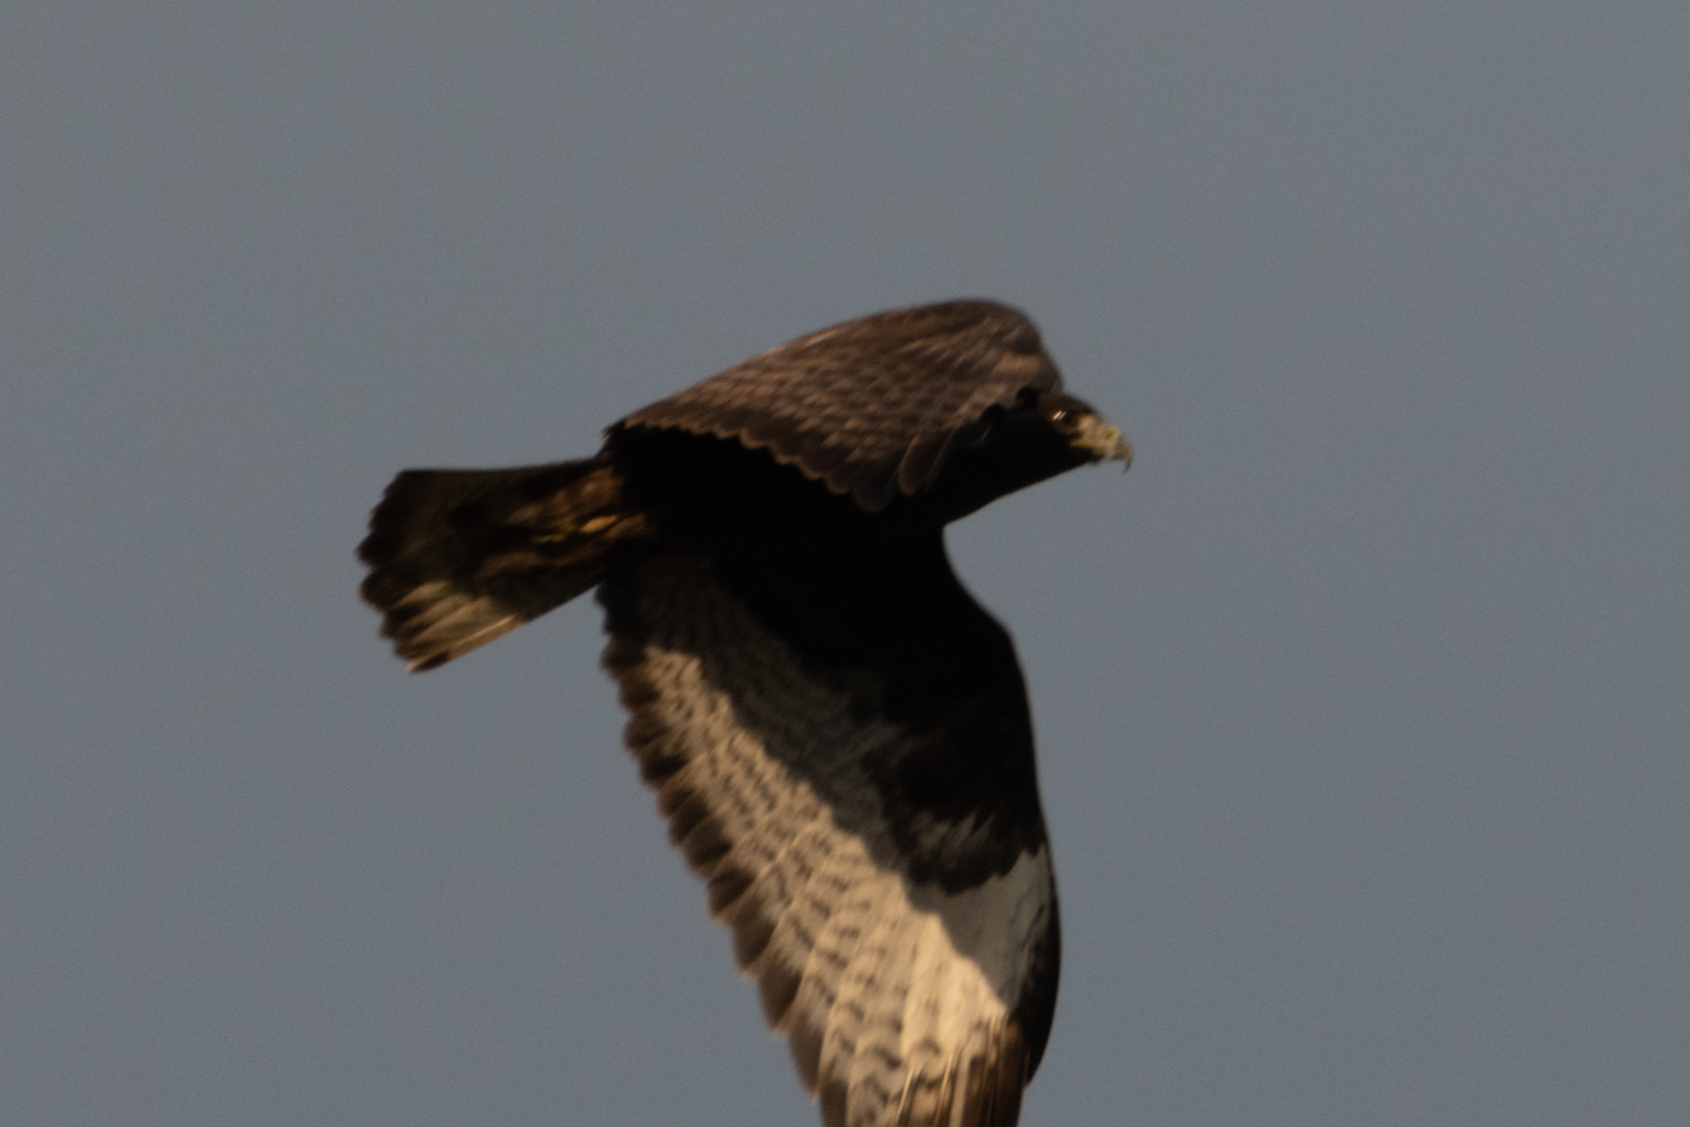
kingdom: Animalia
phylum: Chordata
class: Aves
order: Accipitriformes
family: Accipitridae
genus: Buteo
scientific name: Buteo jamaicensis
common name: Red-tailed hawk
